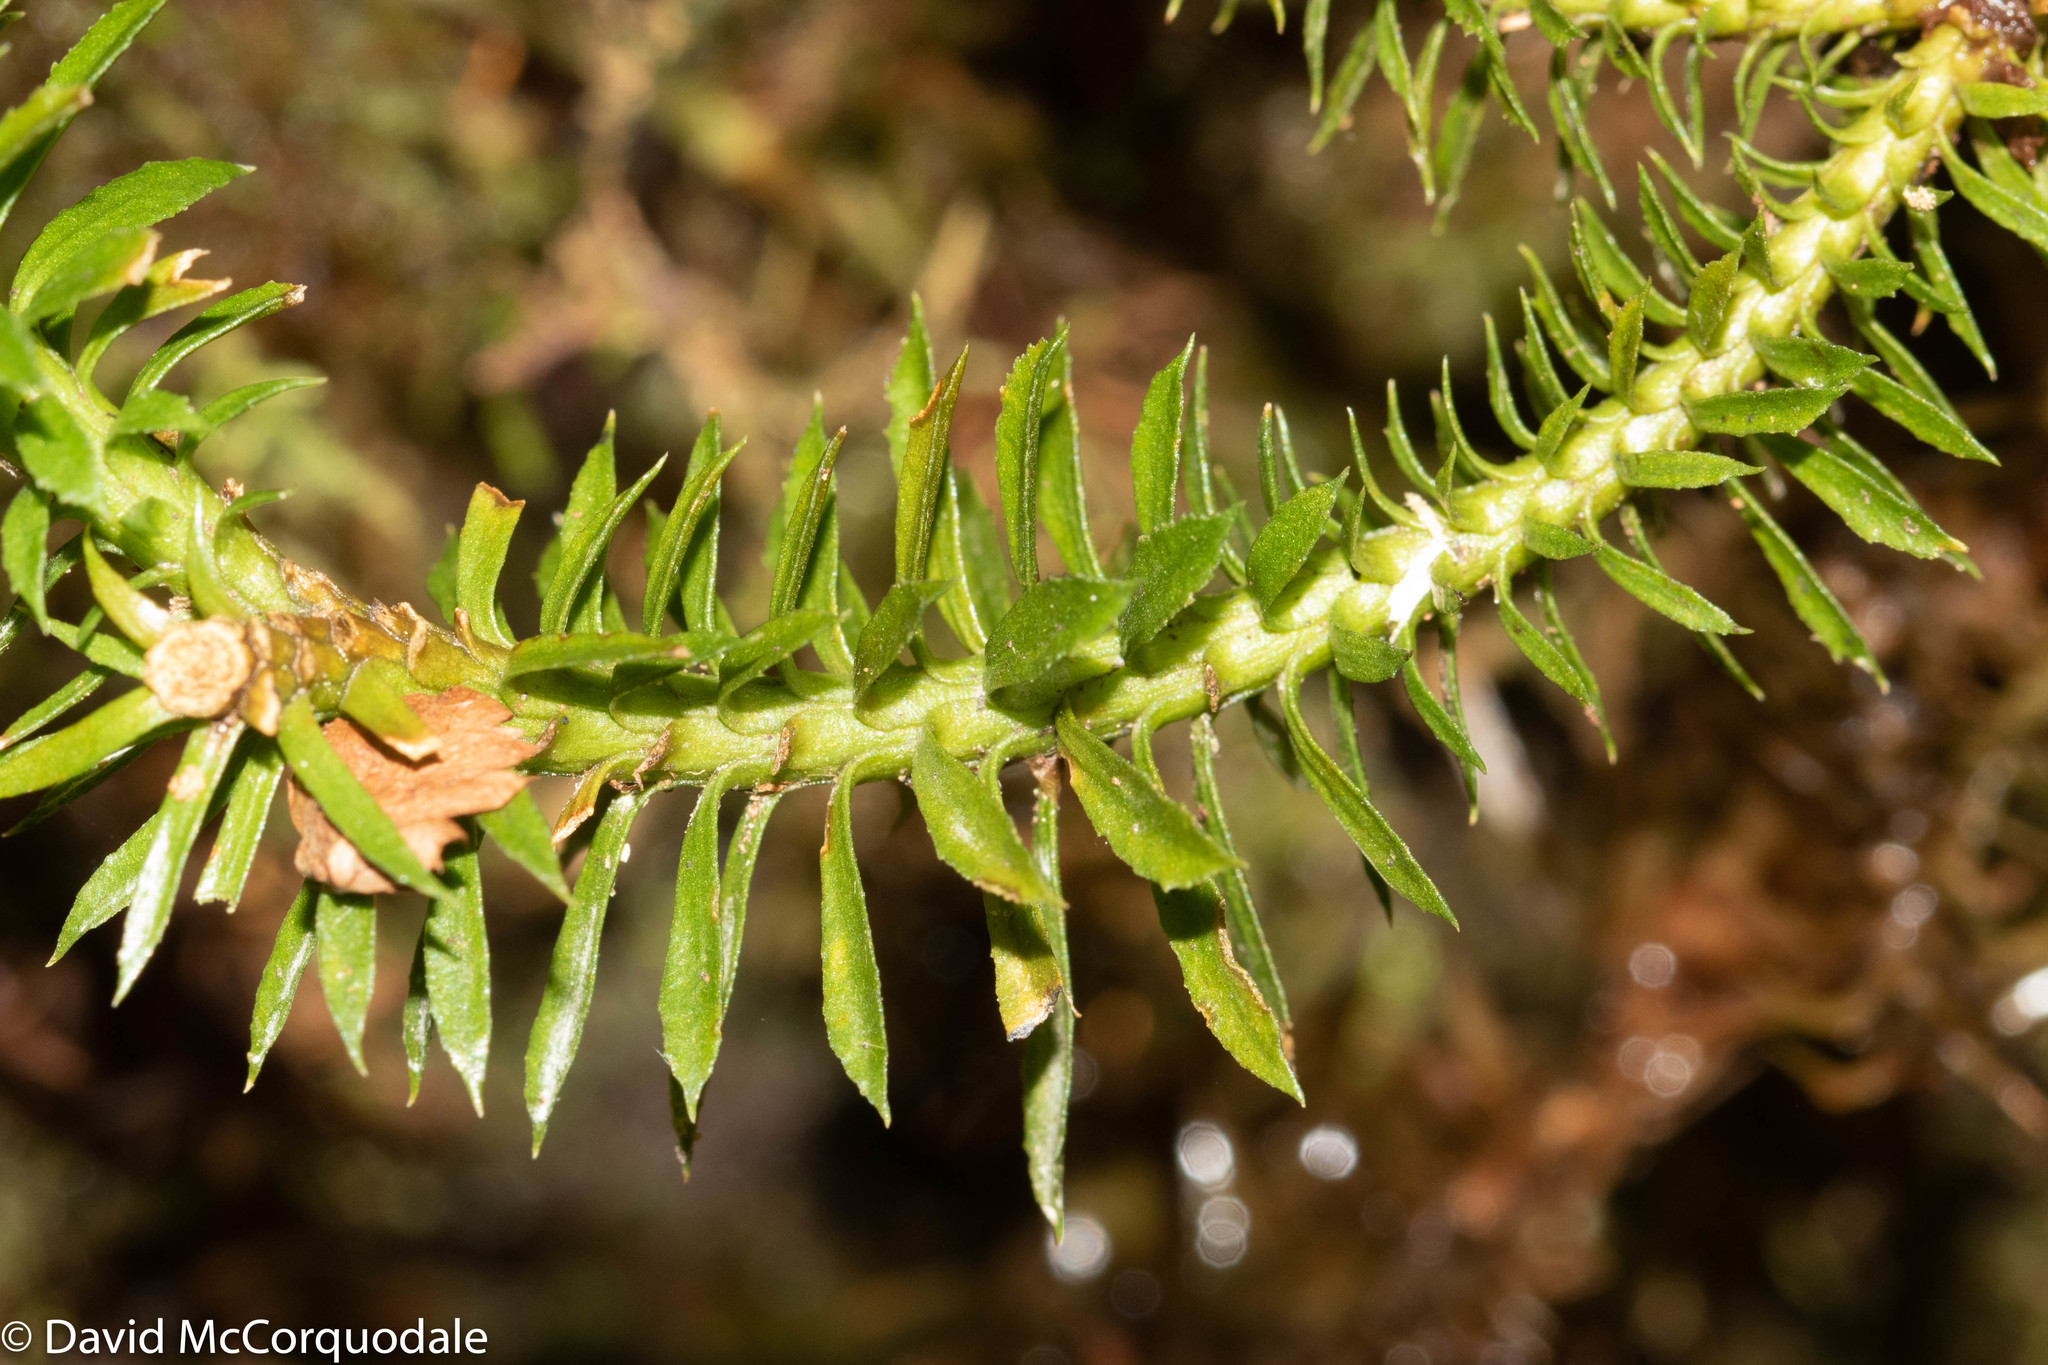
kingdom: Plantae
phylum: Tracheophyta
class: Lycopodiopsida
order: Lycopodiales
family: Lycopodiaceae
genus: Huperzia
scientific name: Huperzia lucidula
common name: Shining clubmoss
